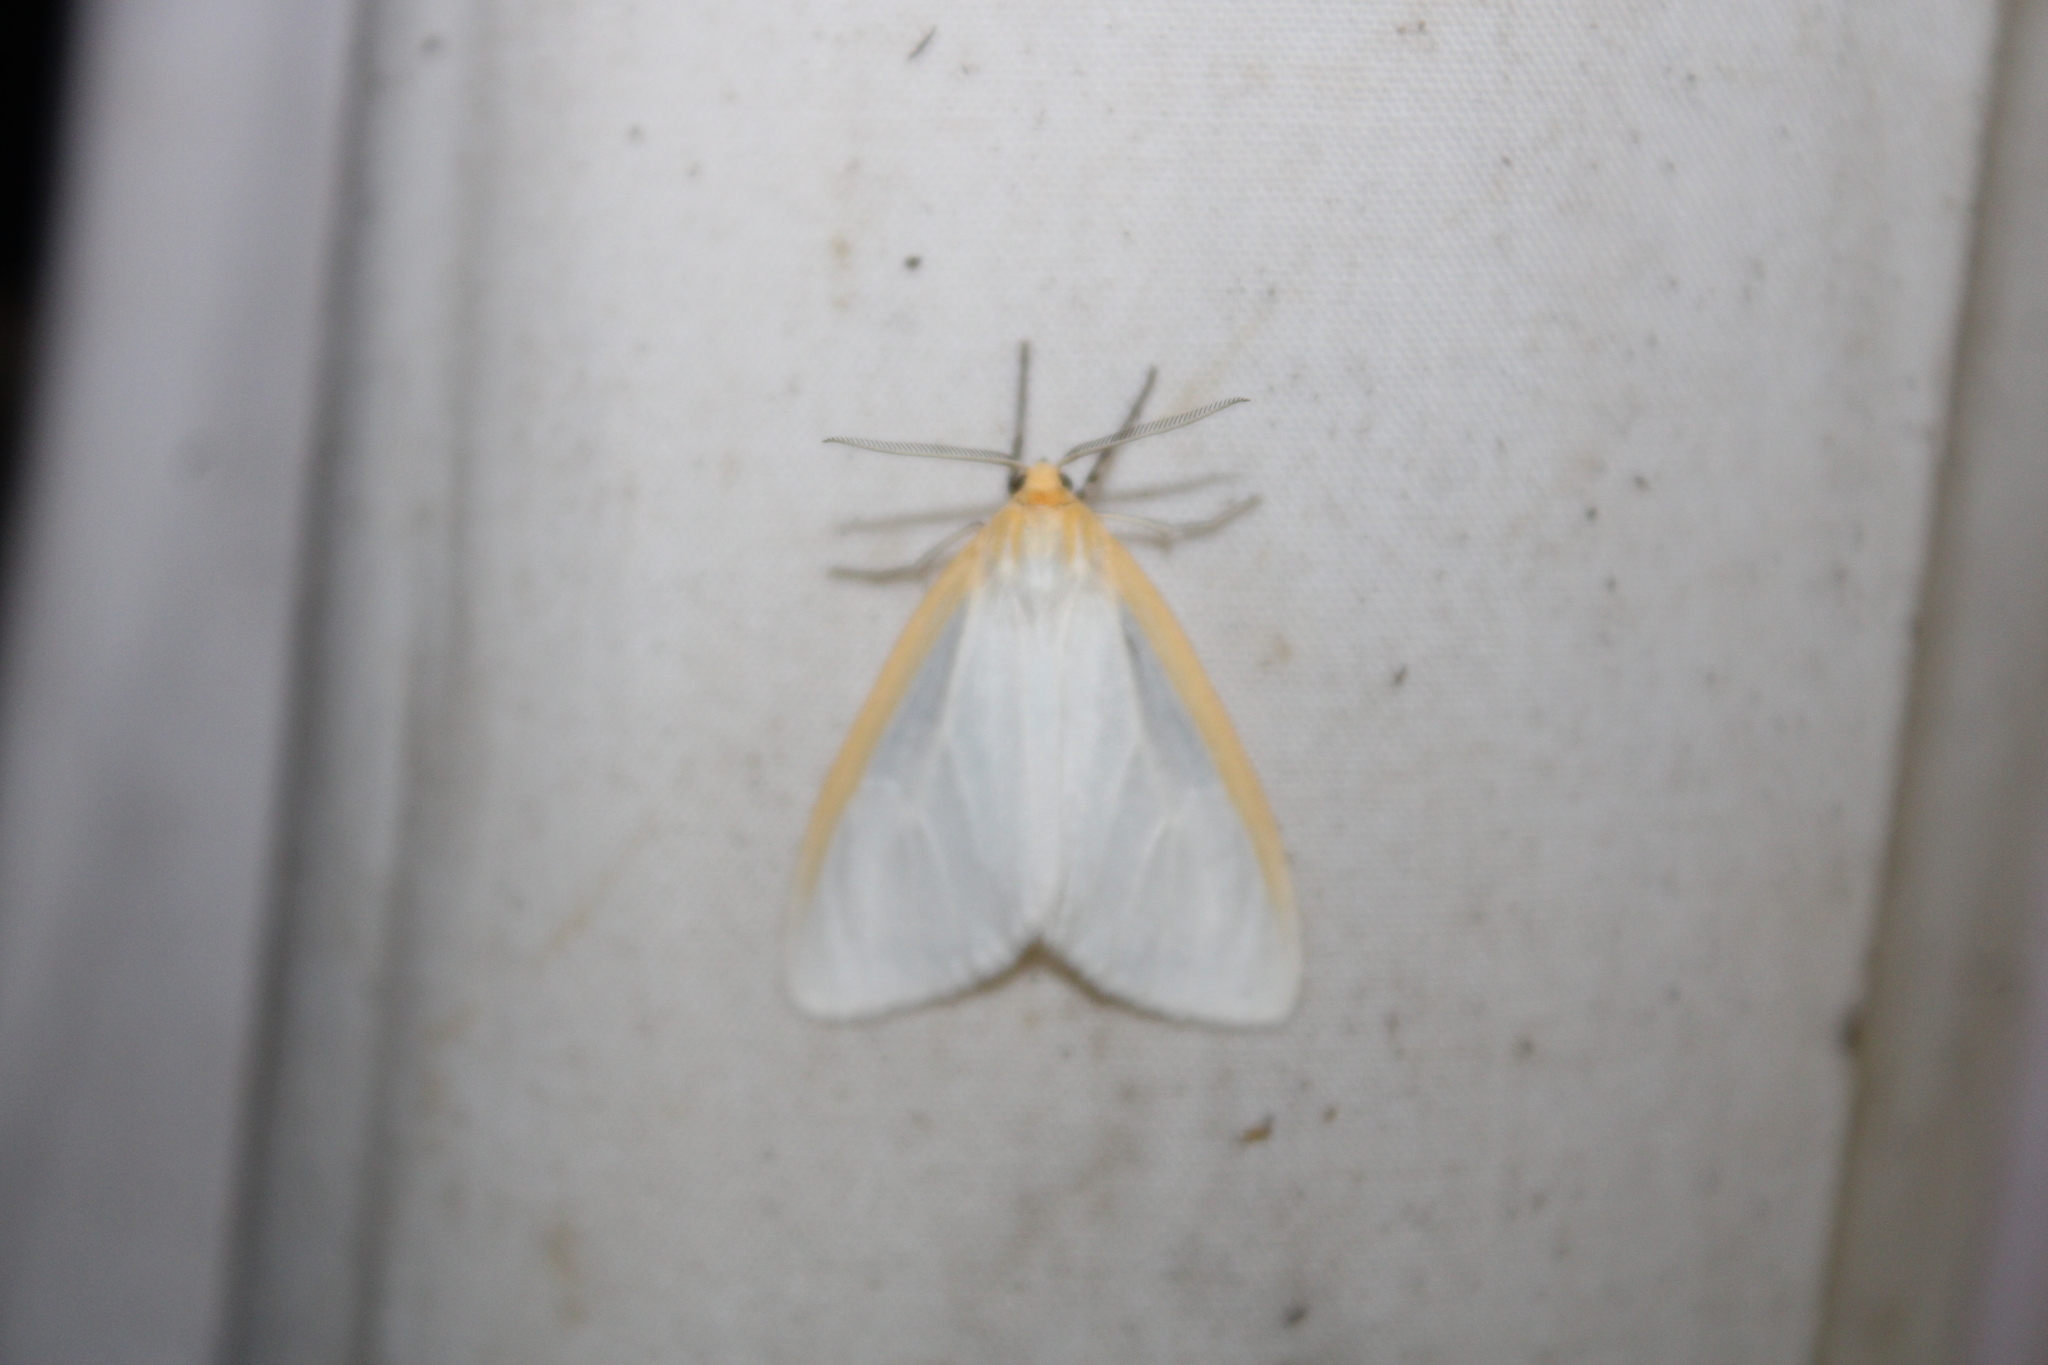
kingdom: Animalia
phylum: Arthropoda
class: Insecta
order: Lepidoptera
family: Erebidae
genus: Cycnia
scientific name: Cycnia tenera
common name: Delicate cycnia moth
